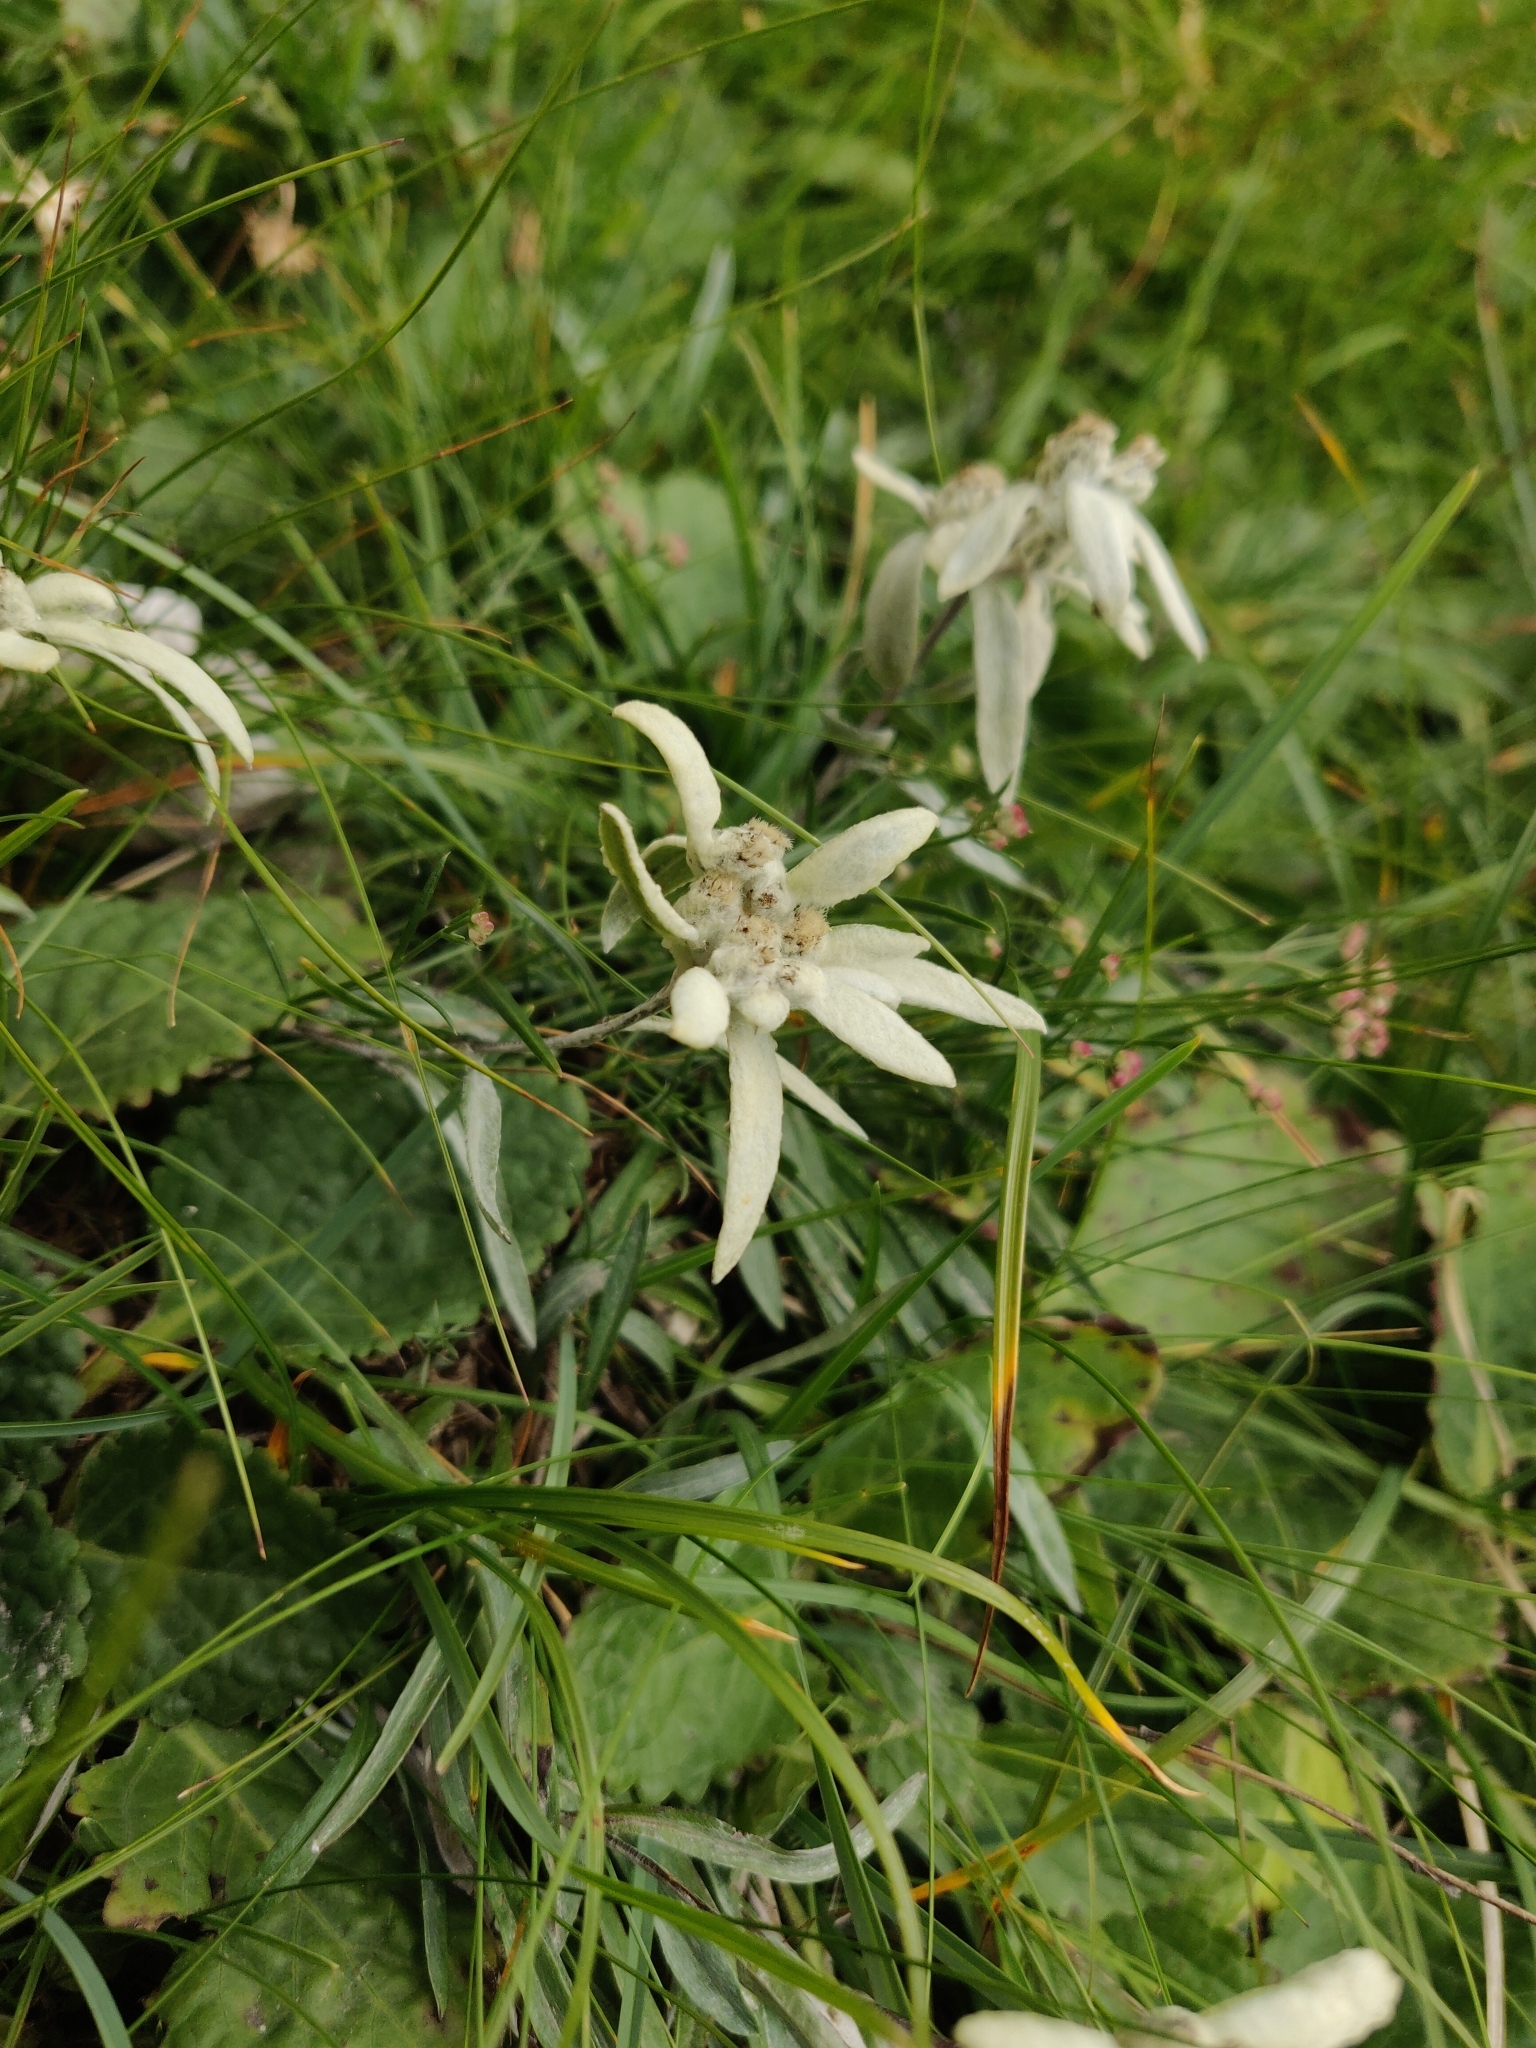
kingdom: Plantae
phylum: Tracheophyta
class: Magnoliopsida
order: Asterales
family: Asteraceae
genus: Leontopodium
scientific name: Leontopodium nivale
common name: Edelweiss
